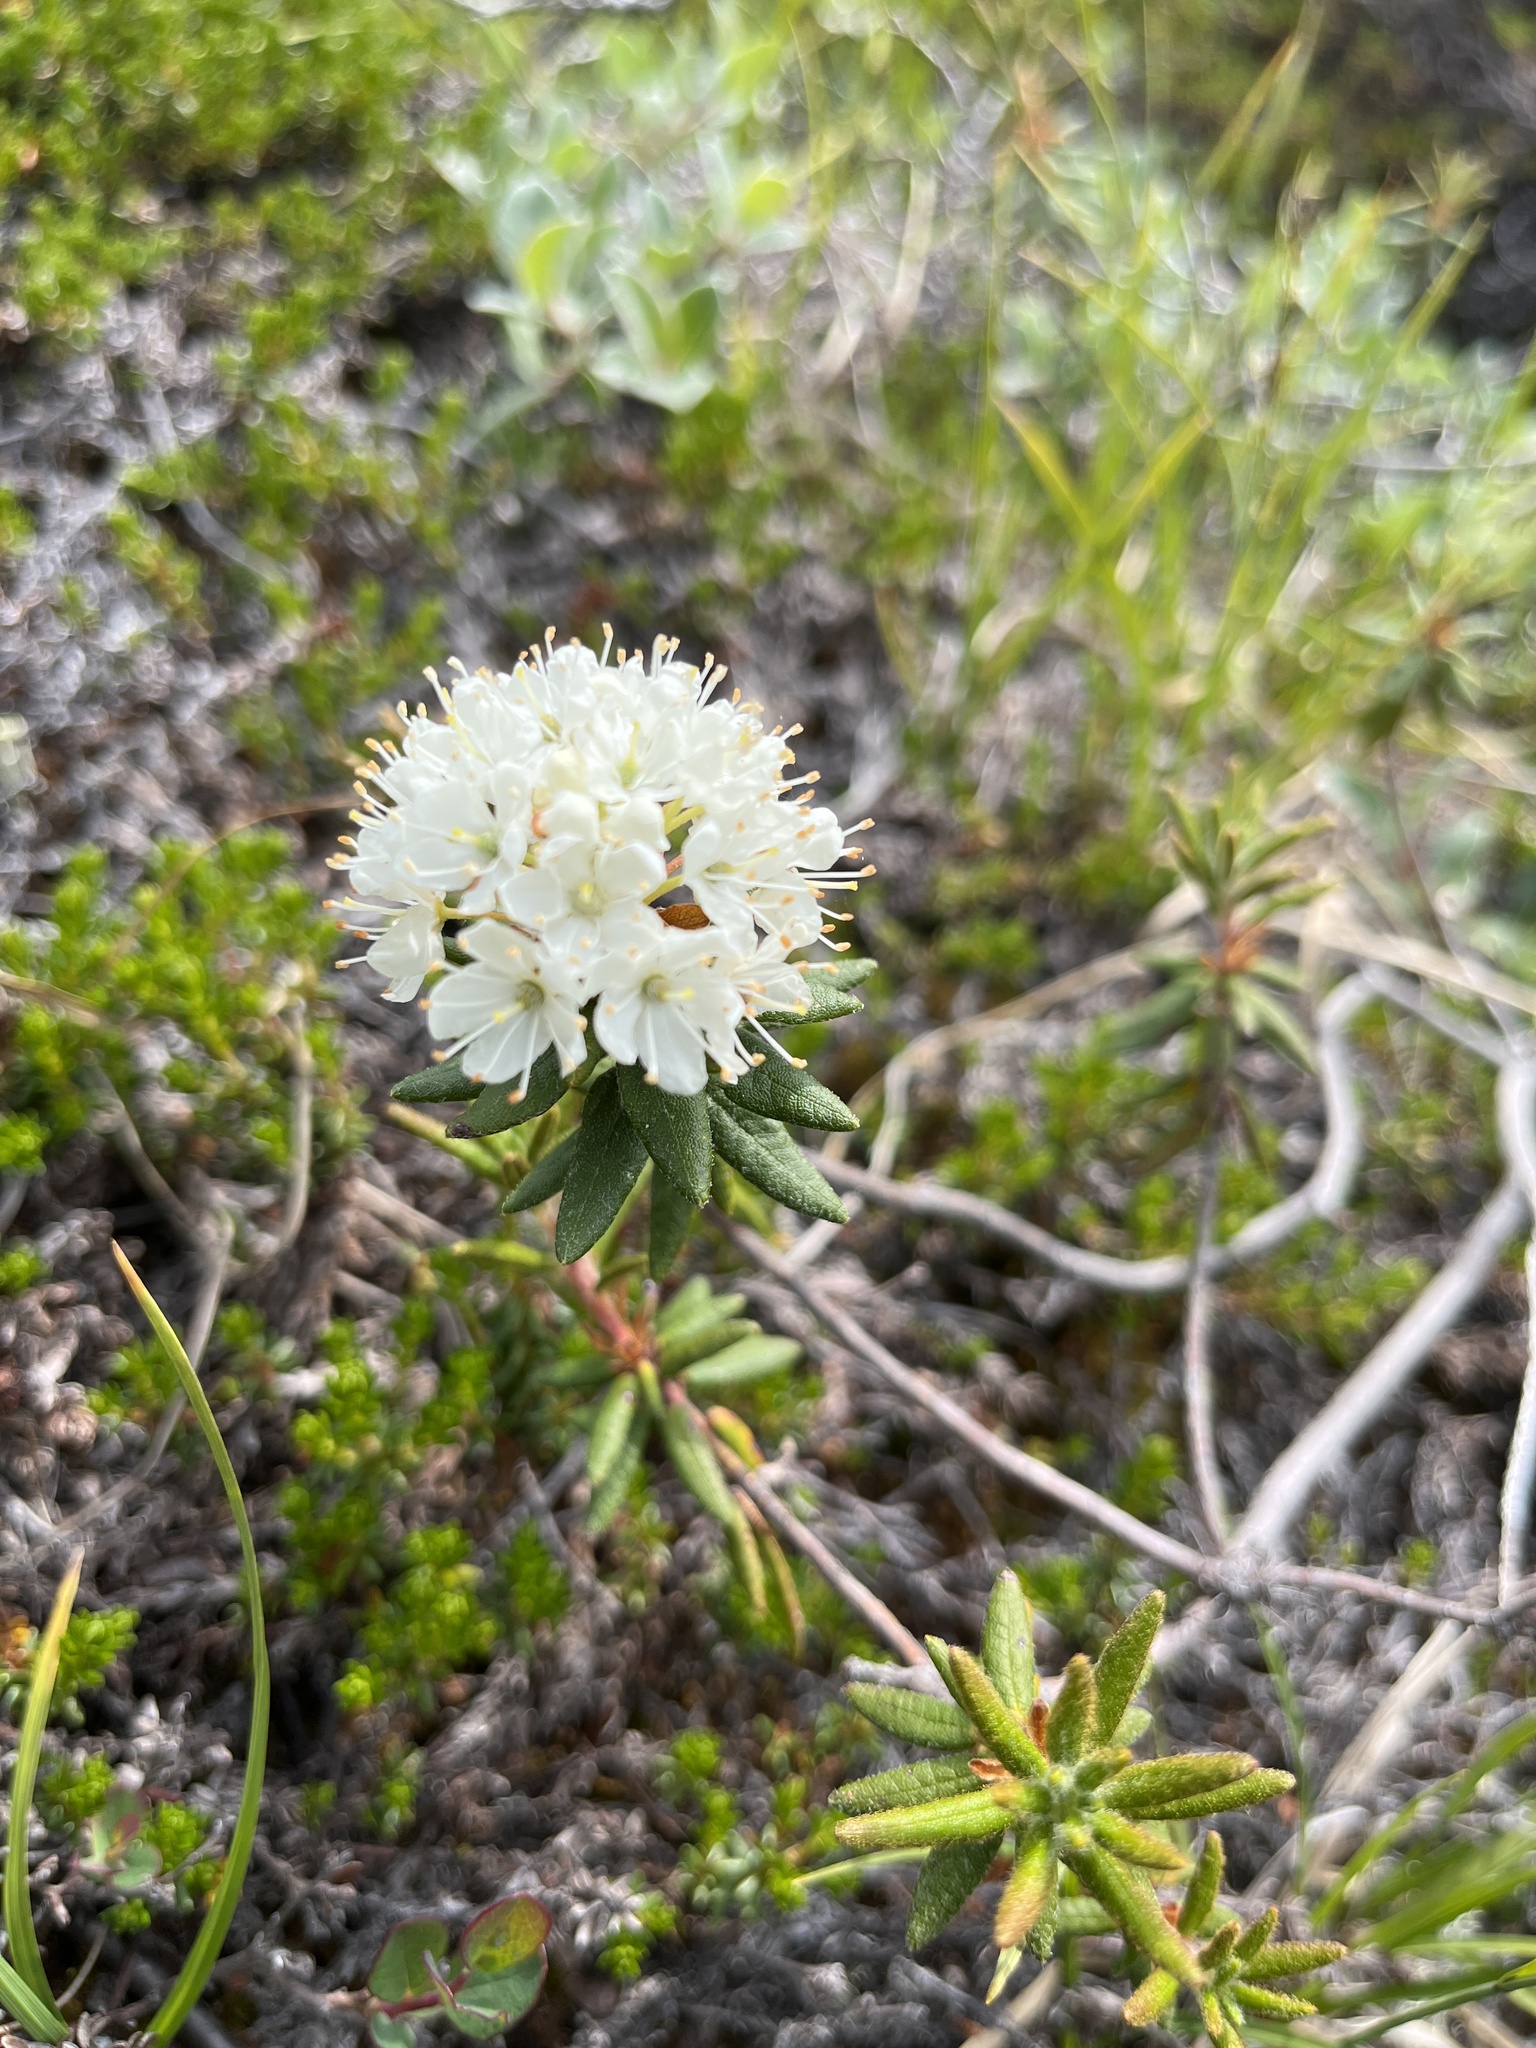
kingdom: Plantae
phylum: Tracheophyta
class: Magnoliopsida
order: Ericales
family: Ericaceae
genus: Rhododendron
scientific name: Rhododendron groenlandicum
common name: Bog labrador tea
